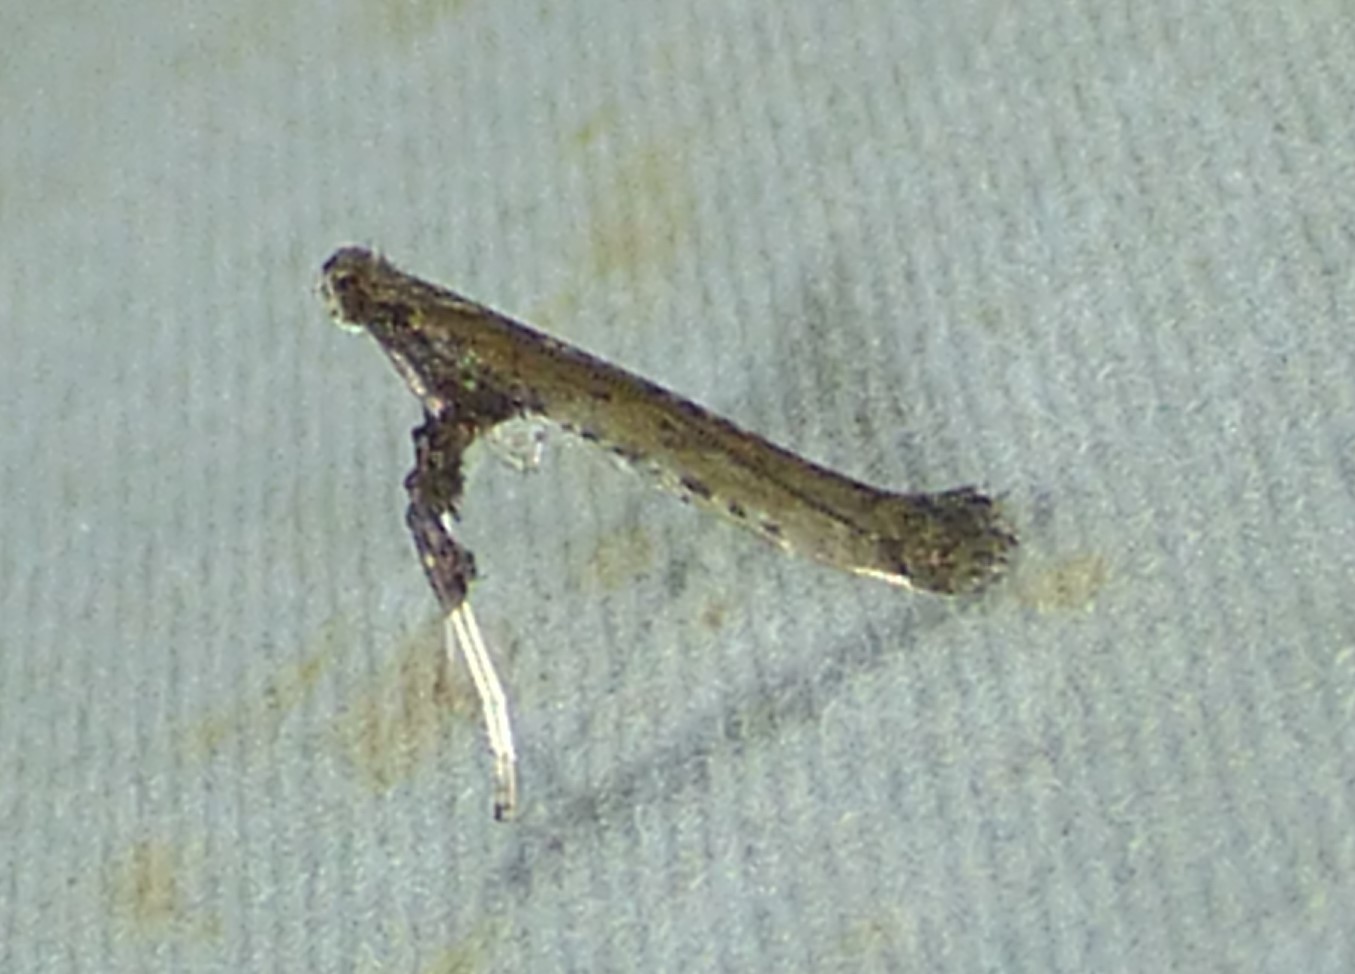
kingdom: Animalia
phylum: Arthropoda
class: Insecta
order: Lepidoptera
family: Gracillariidae
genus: Caloptilia
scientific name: Caloptilia rhoifoliella
